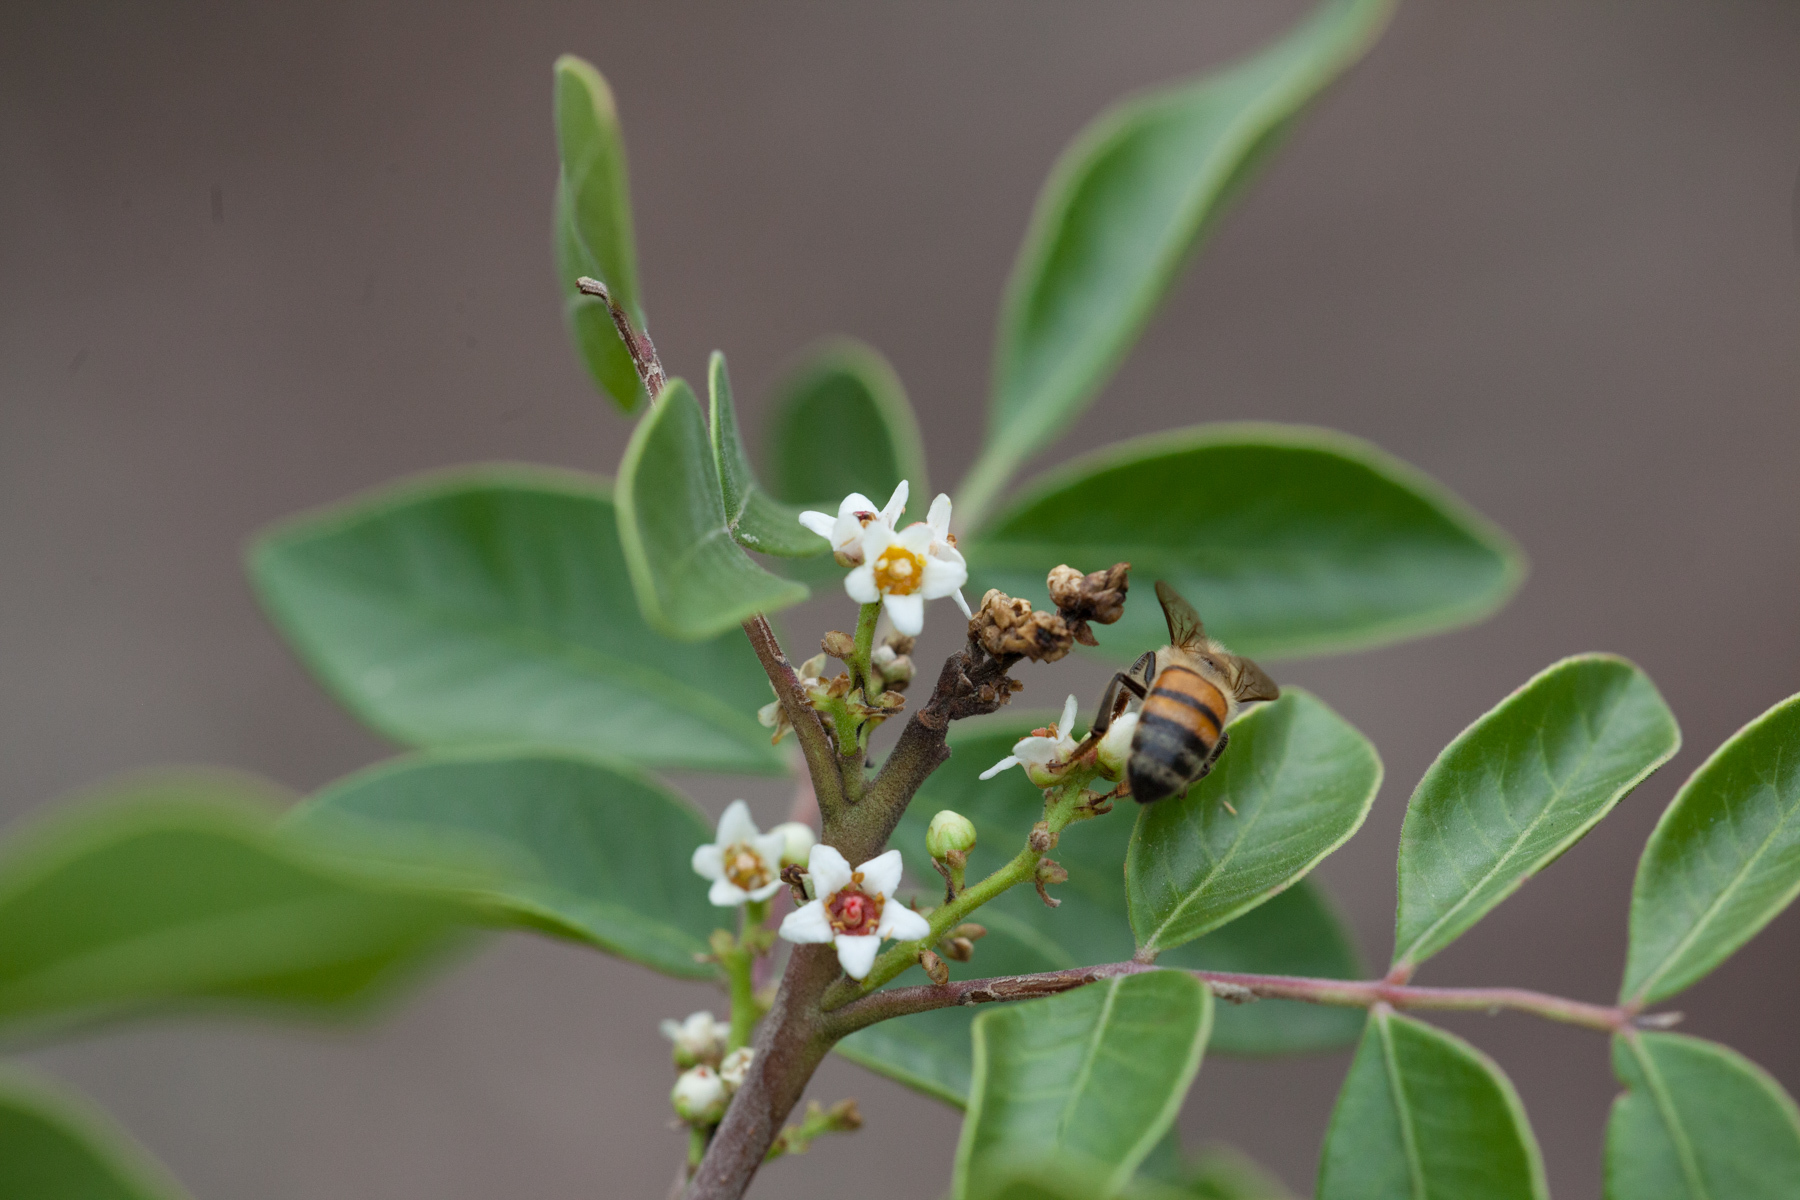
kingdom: Plantae
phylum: Tracheophyta
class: Magnoliopsida
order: Sapindales
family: Anacardiaceae
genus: Rhus
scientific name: Rhus virens
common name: Evergreen sumac
